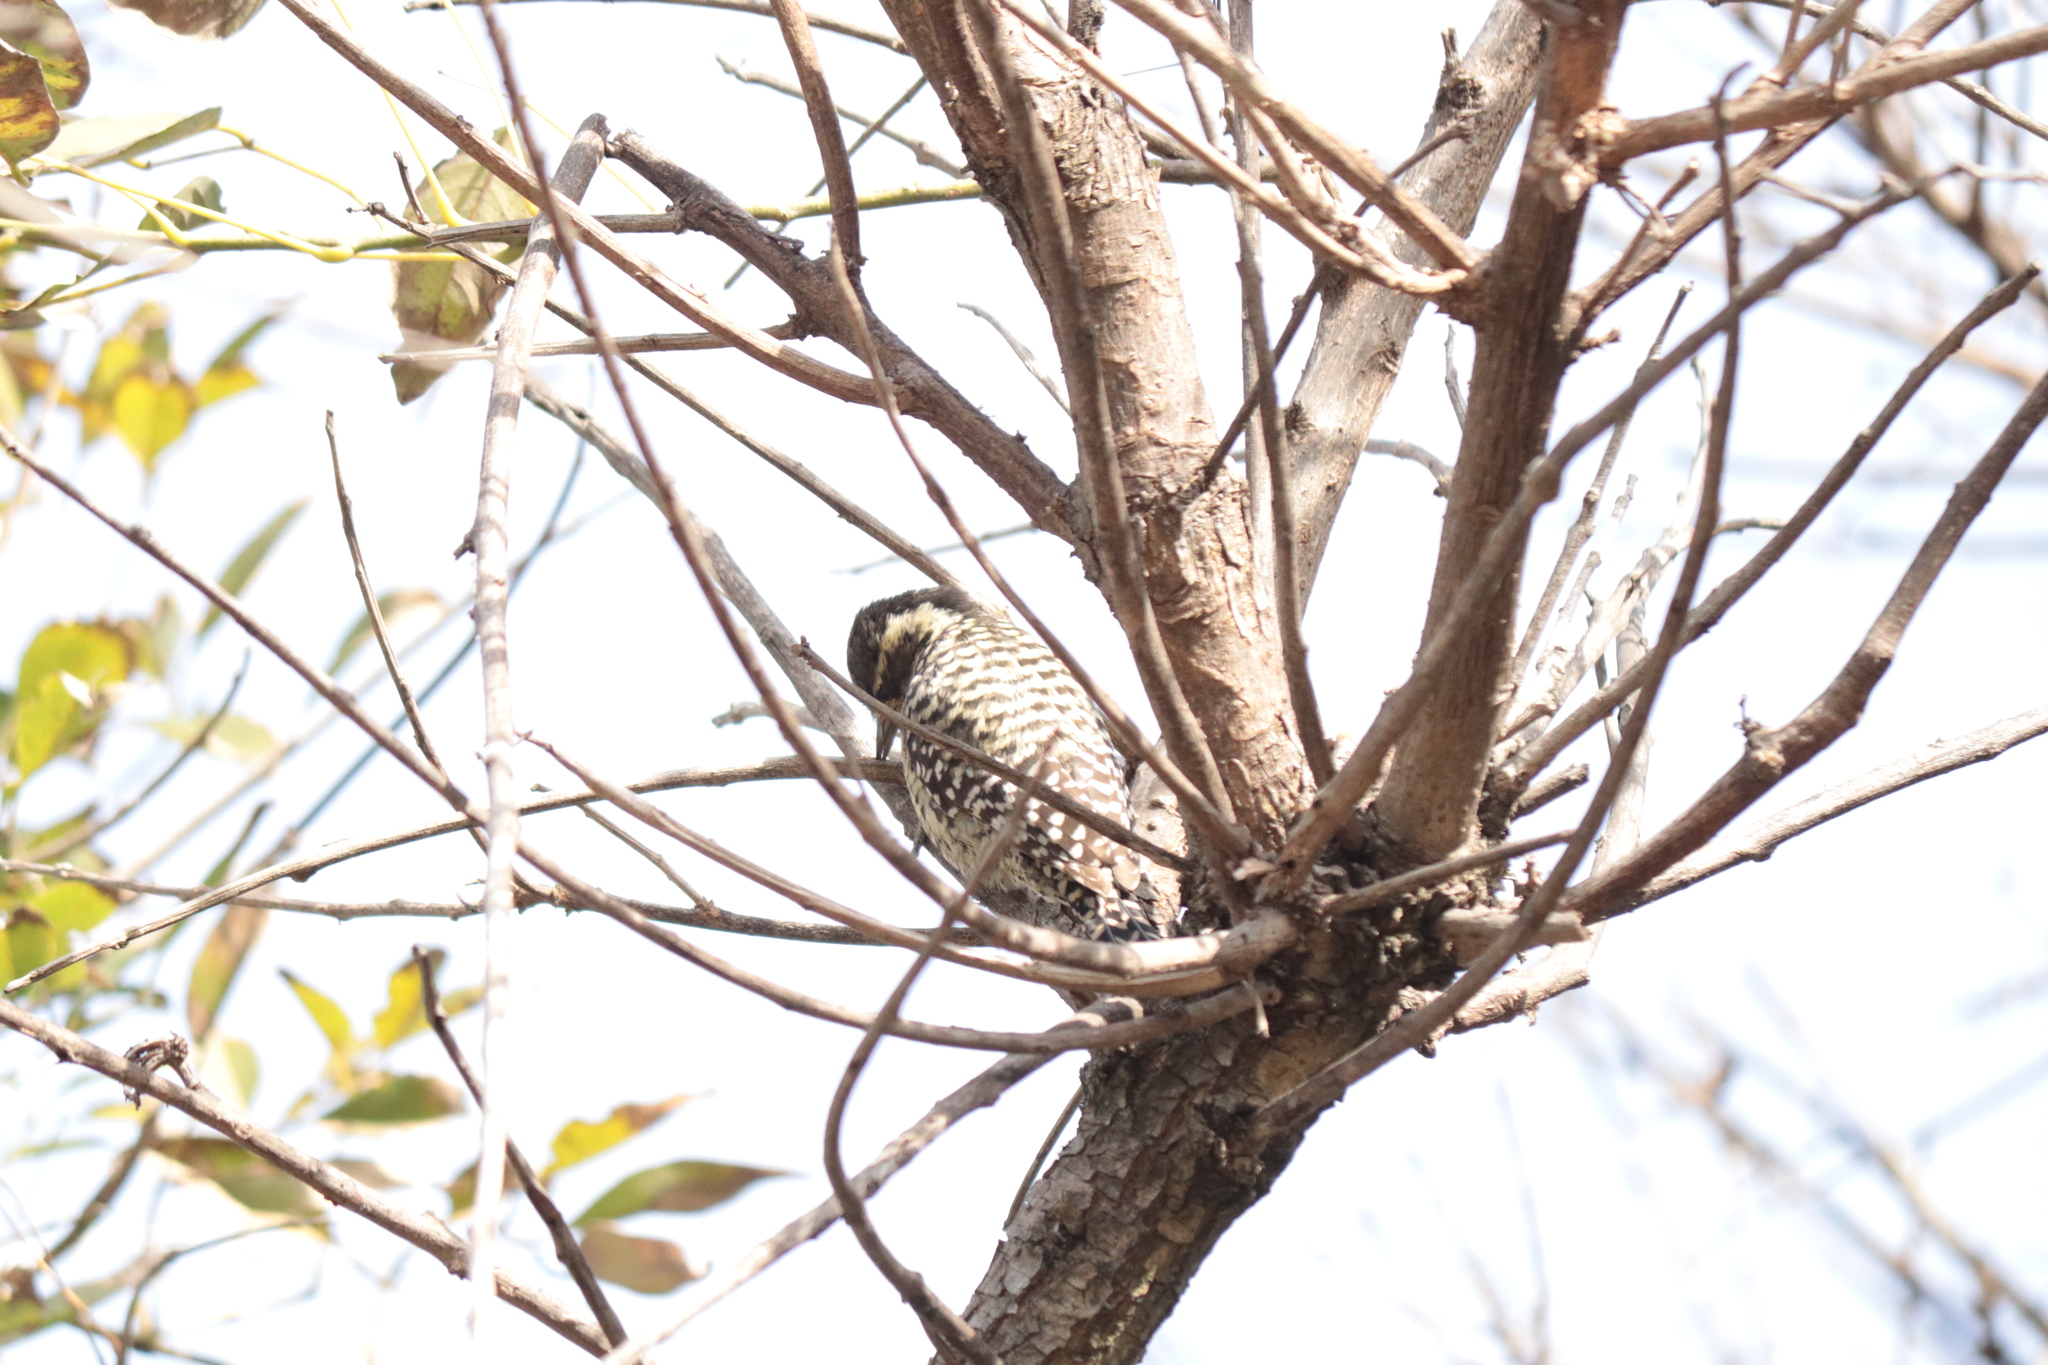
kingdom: Animalia
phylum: Chordata
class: Aves
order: Piciformes
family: Picidae
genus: Veniliornis
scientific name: Veniliornis mixtus
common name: Checkered woodpecker
